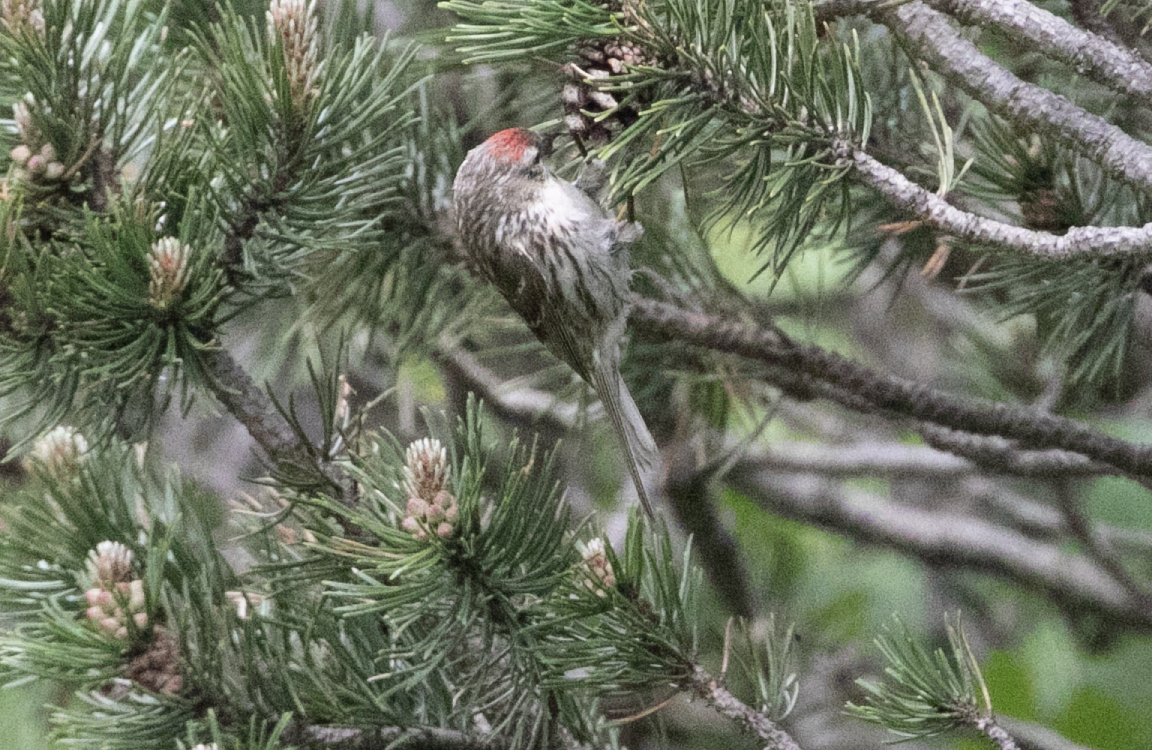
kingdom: Animalia
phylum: Chordata
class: Aves
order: Passeriformes
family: Fringillidae
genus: Acanthis
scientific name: Acanthis flammea
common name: Common redpoll
